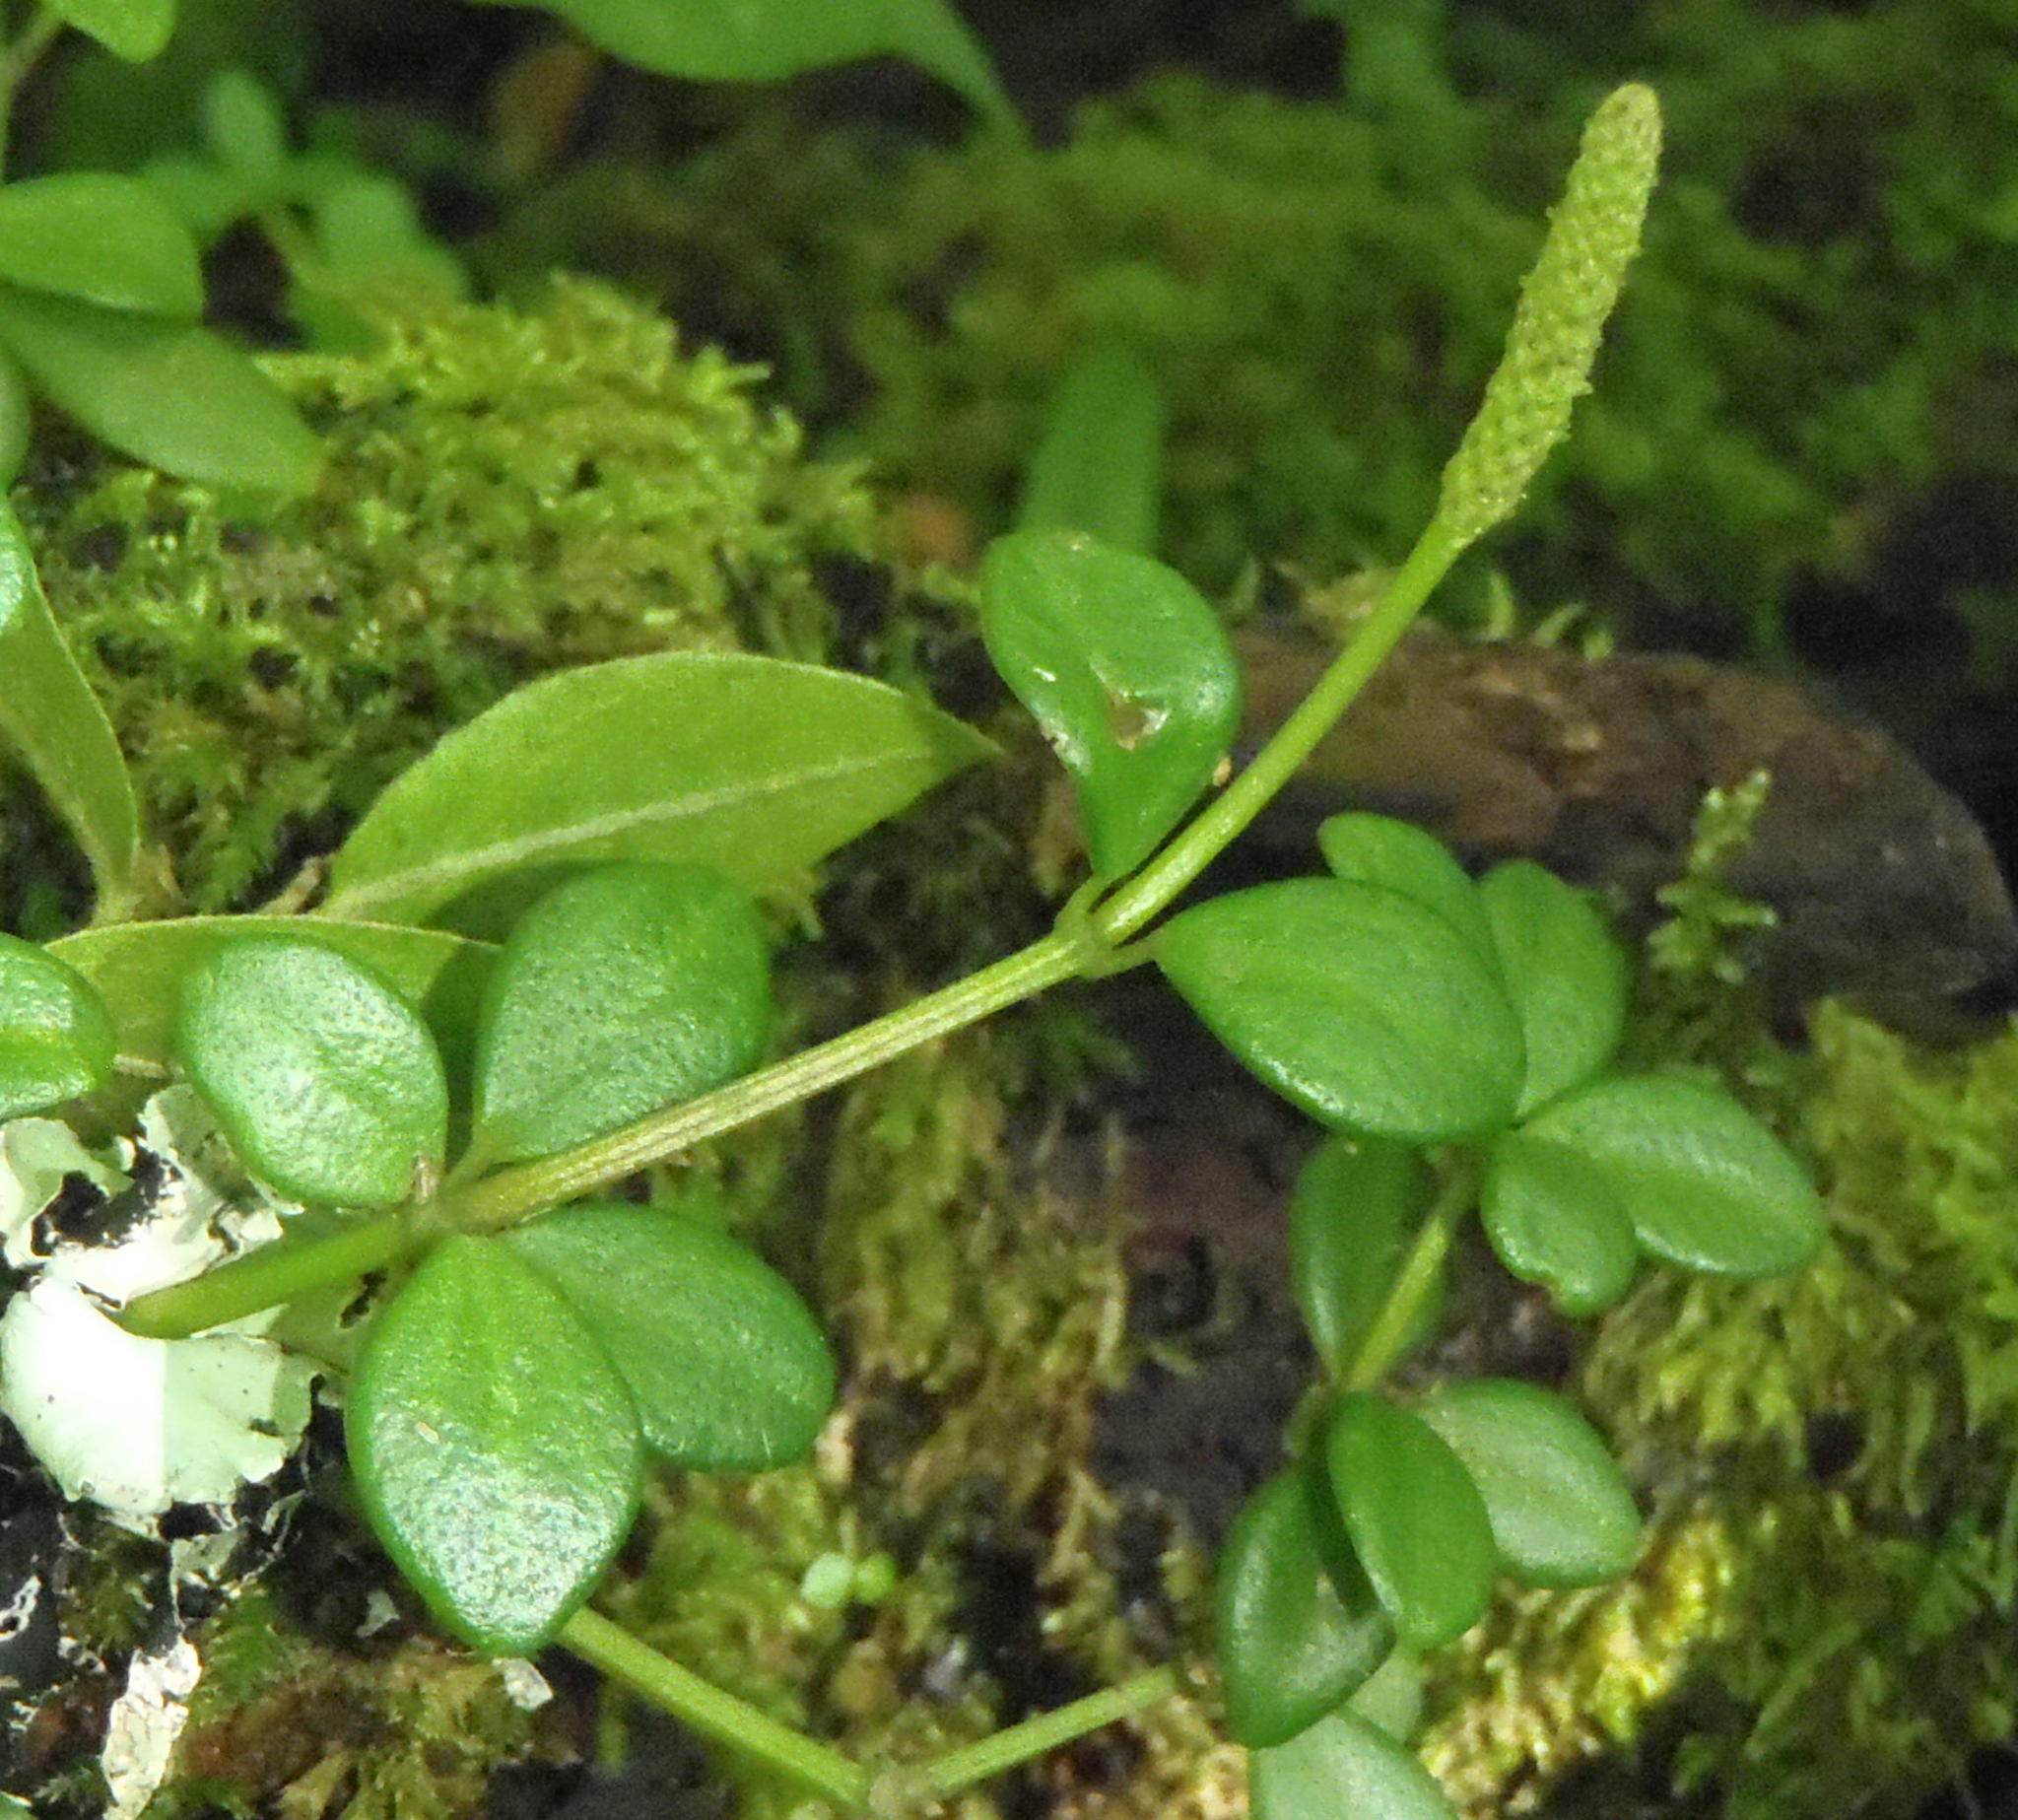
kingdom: Plantae
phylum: Tracheophyta
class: Magnoliopsida
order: Piperales
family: Piperaceae
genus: Peperomia
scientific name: Peperomia tetraphylla
